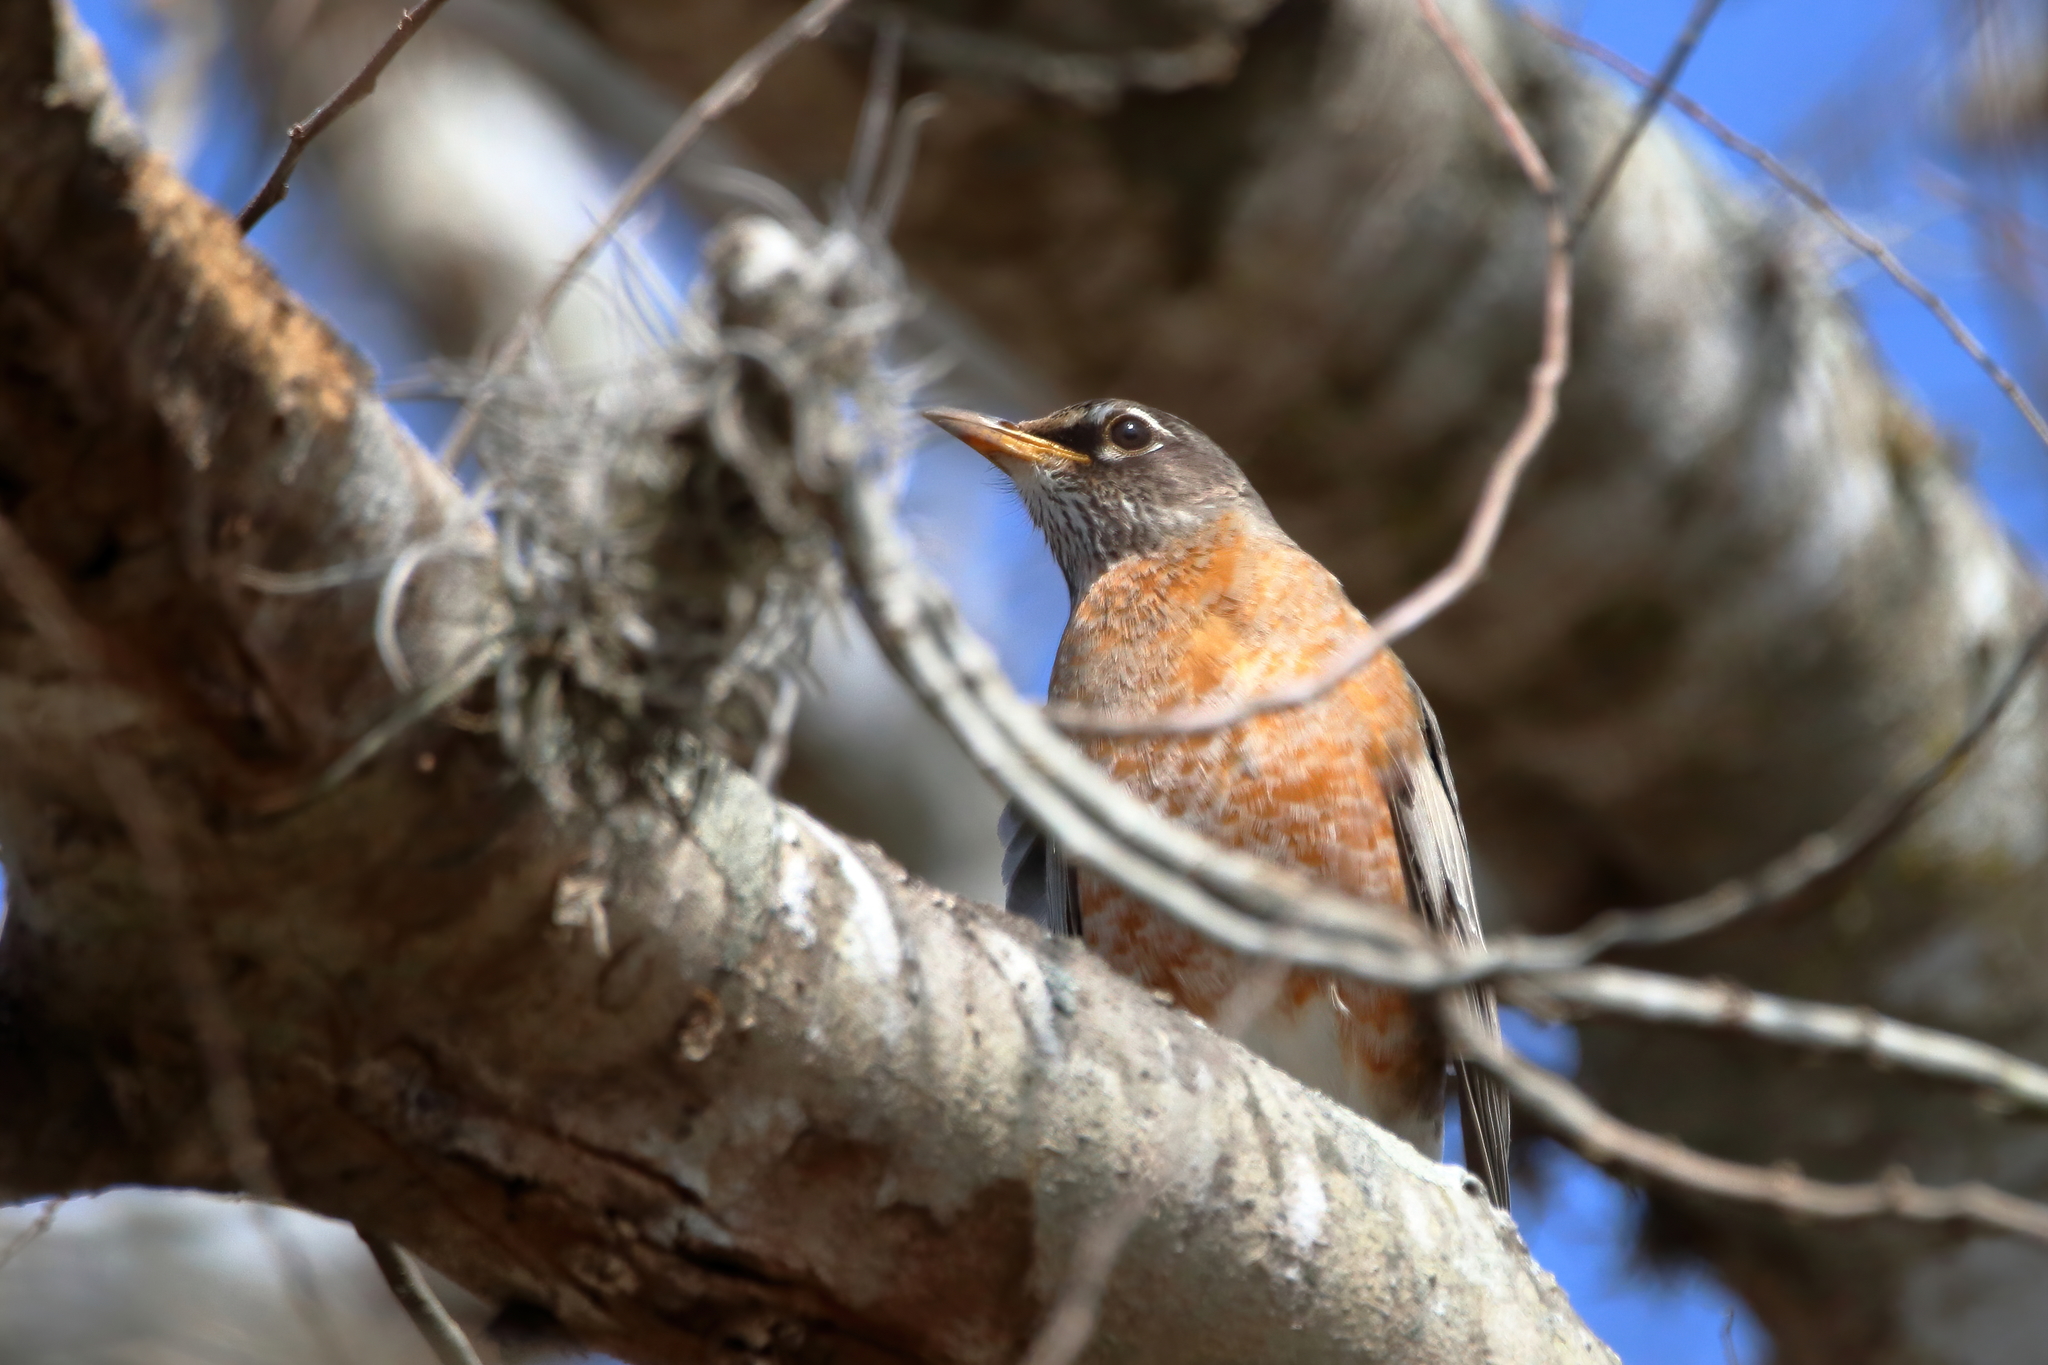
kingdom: Animalia
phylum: Chordata
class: Aves
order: Passeriformes
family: Turdidae
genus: Turdus
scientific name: Turdus migratorius
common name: American robin
